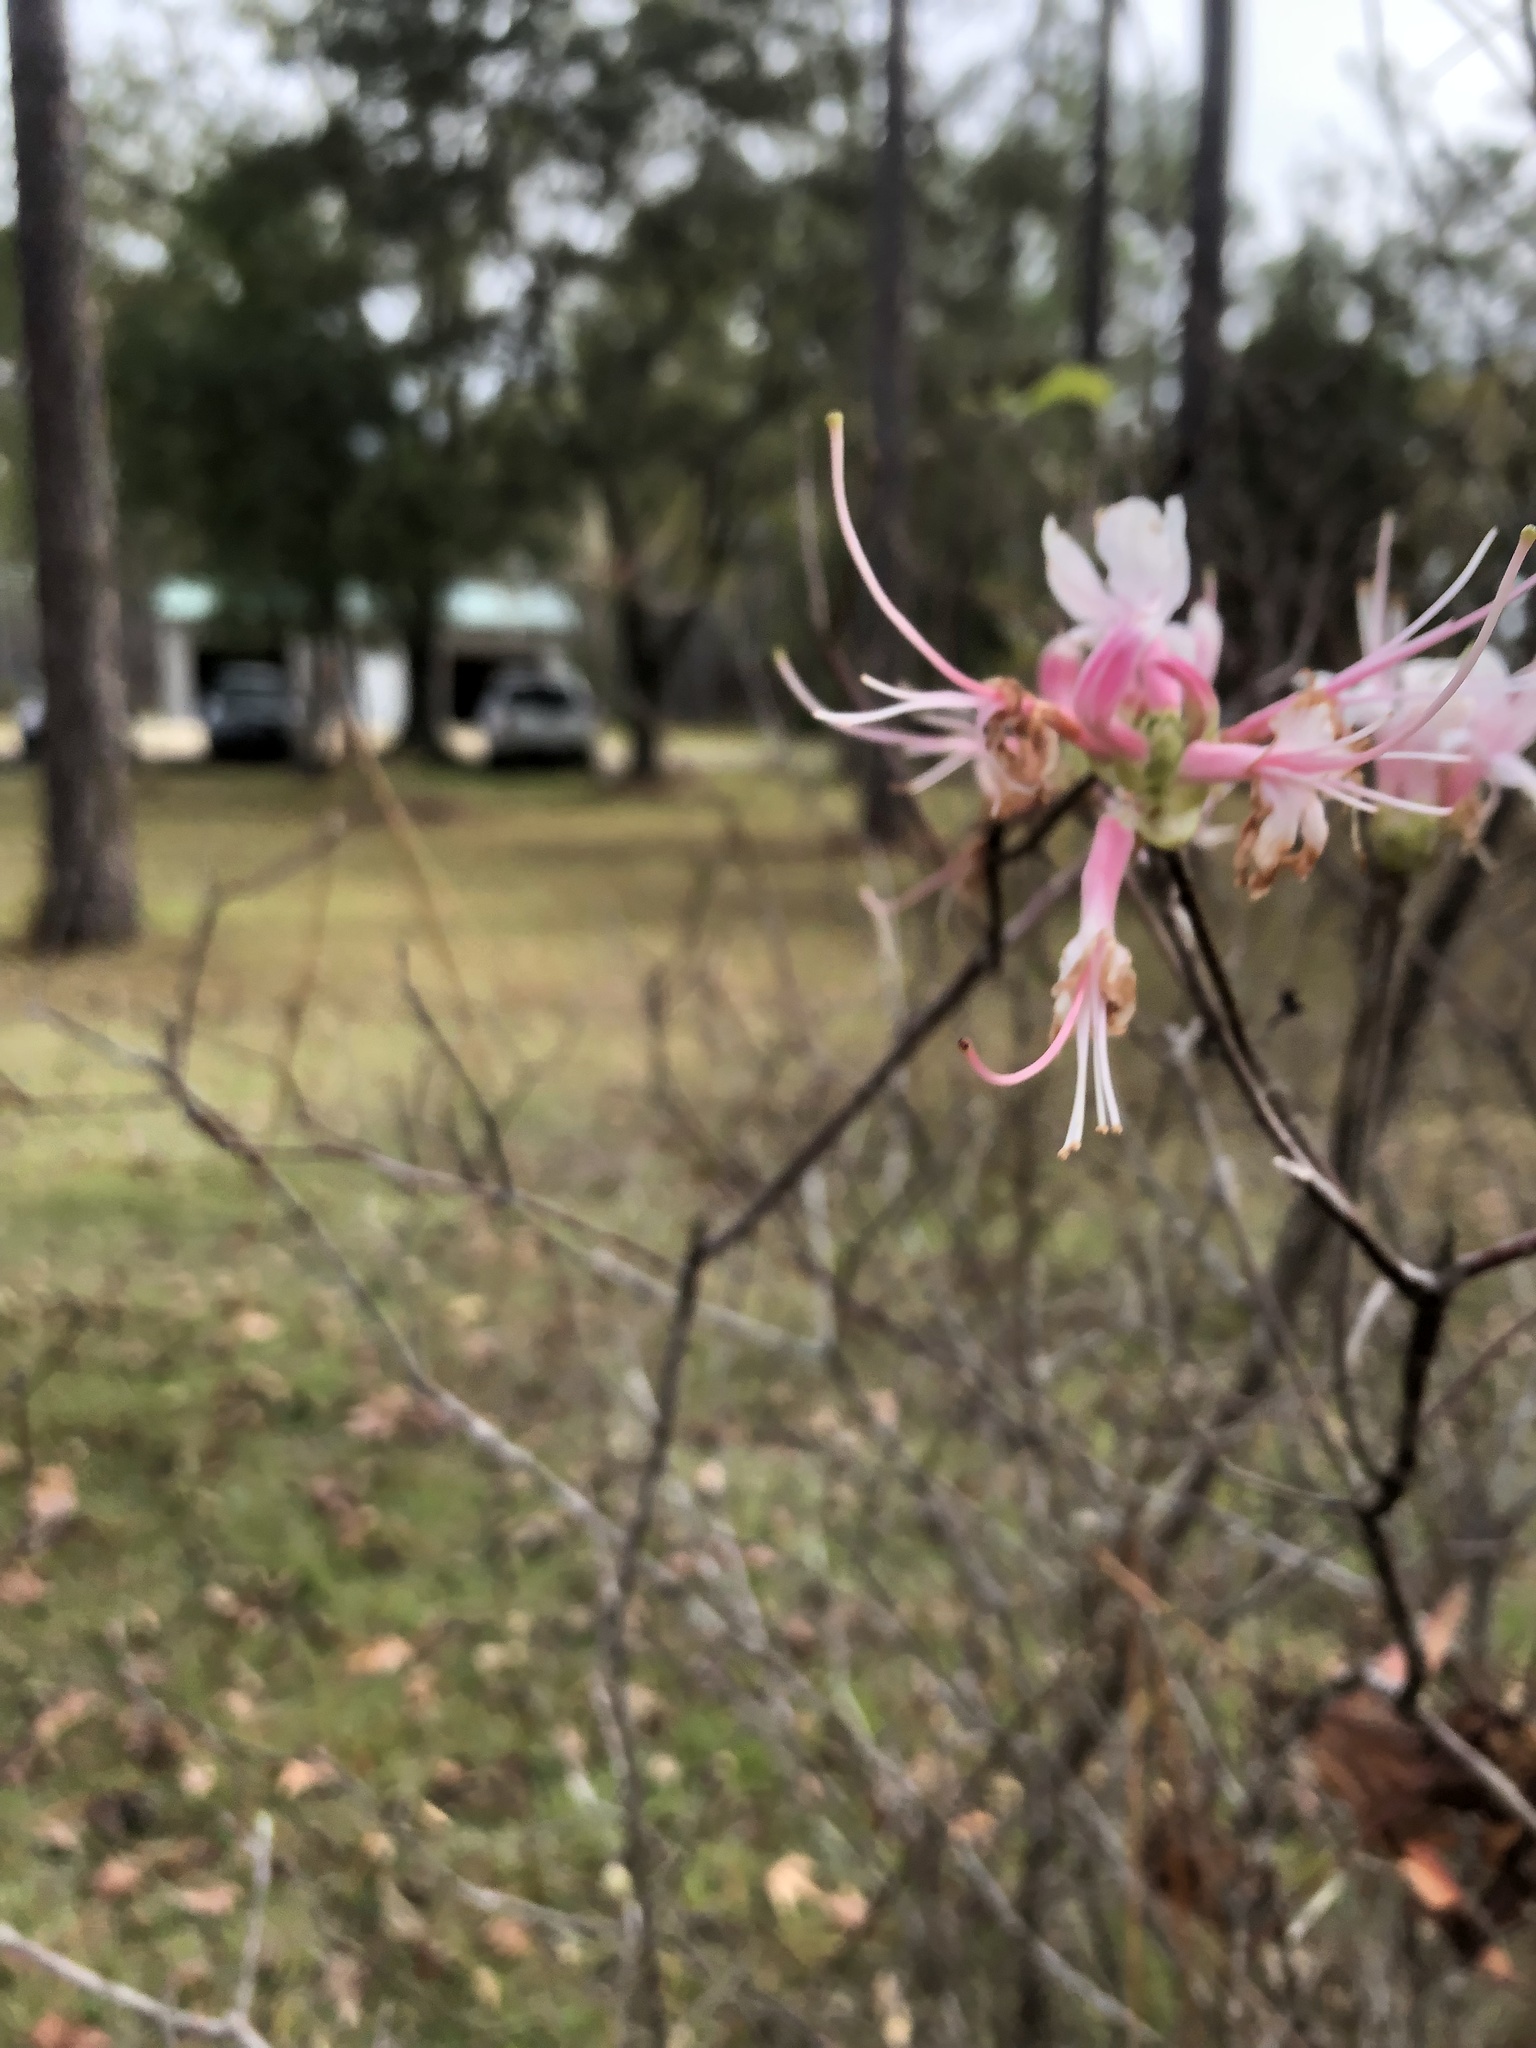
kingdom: Plantae
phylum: Tracheophyta
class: Magnoliopsida
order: Ericales
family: Ericaceae
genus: Rhododendron
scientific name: Rhododendron canescens
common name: Mountain azalea
